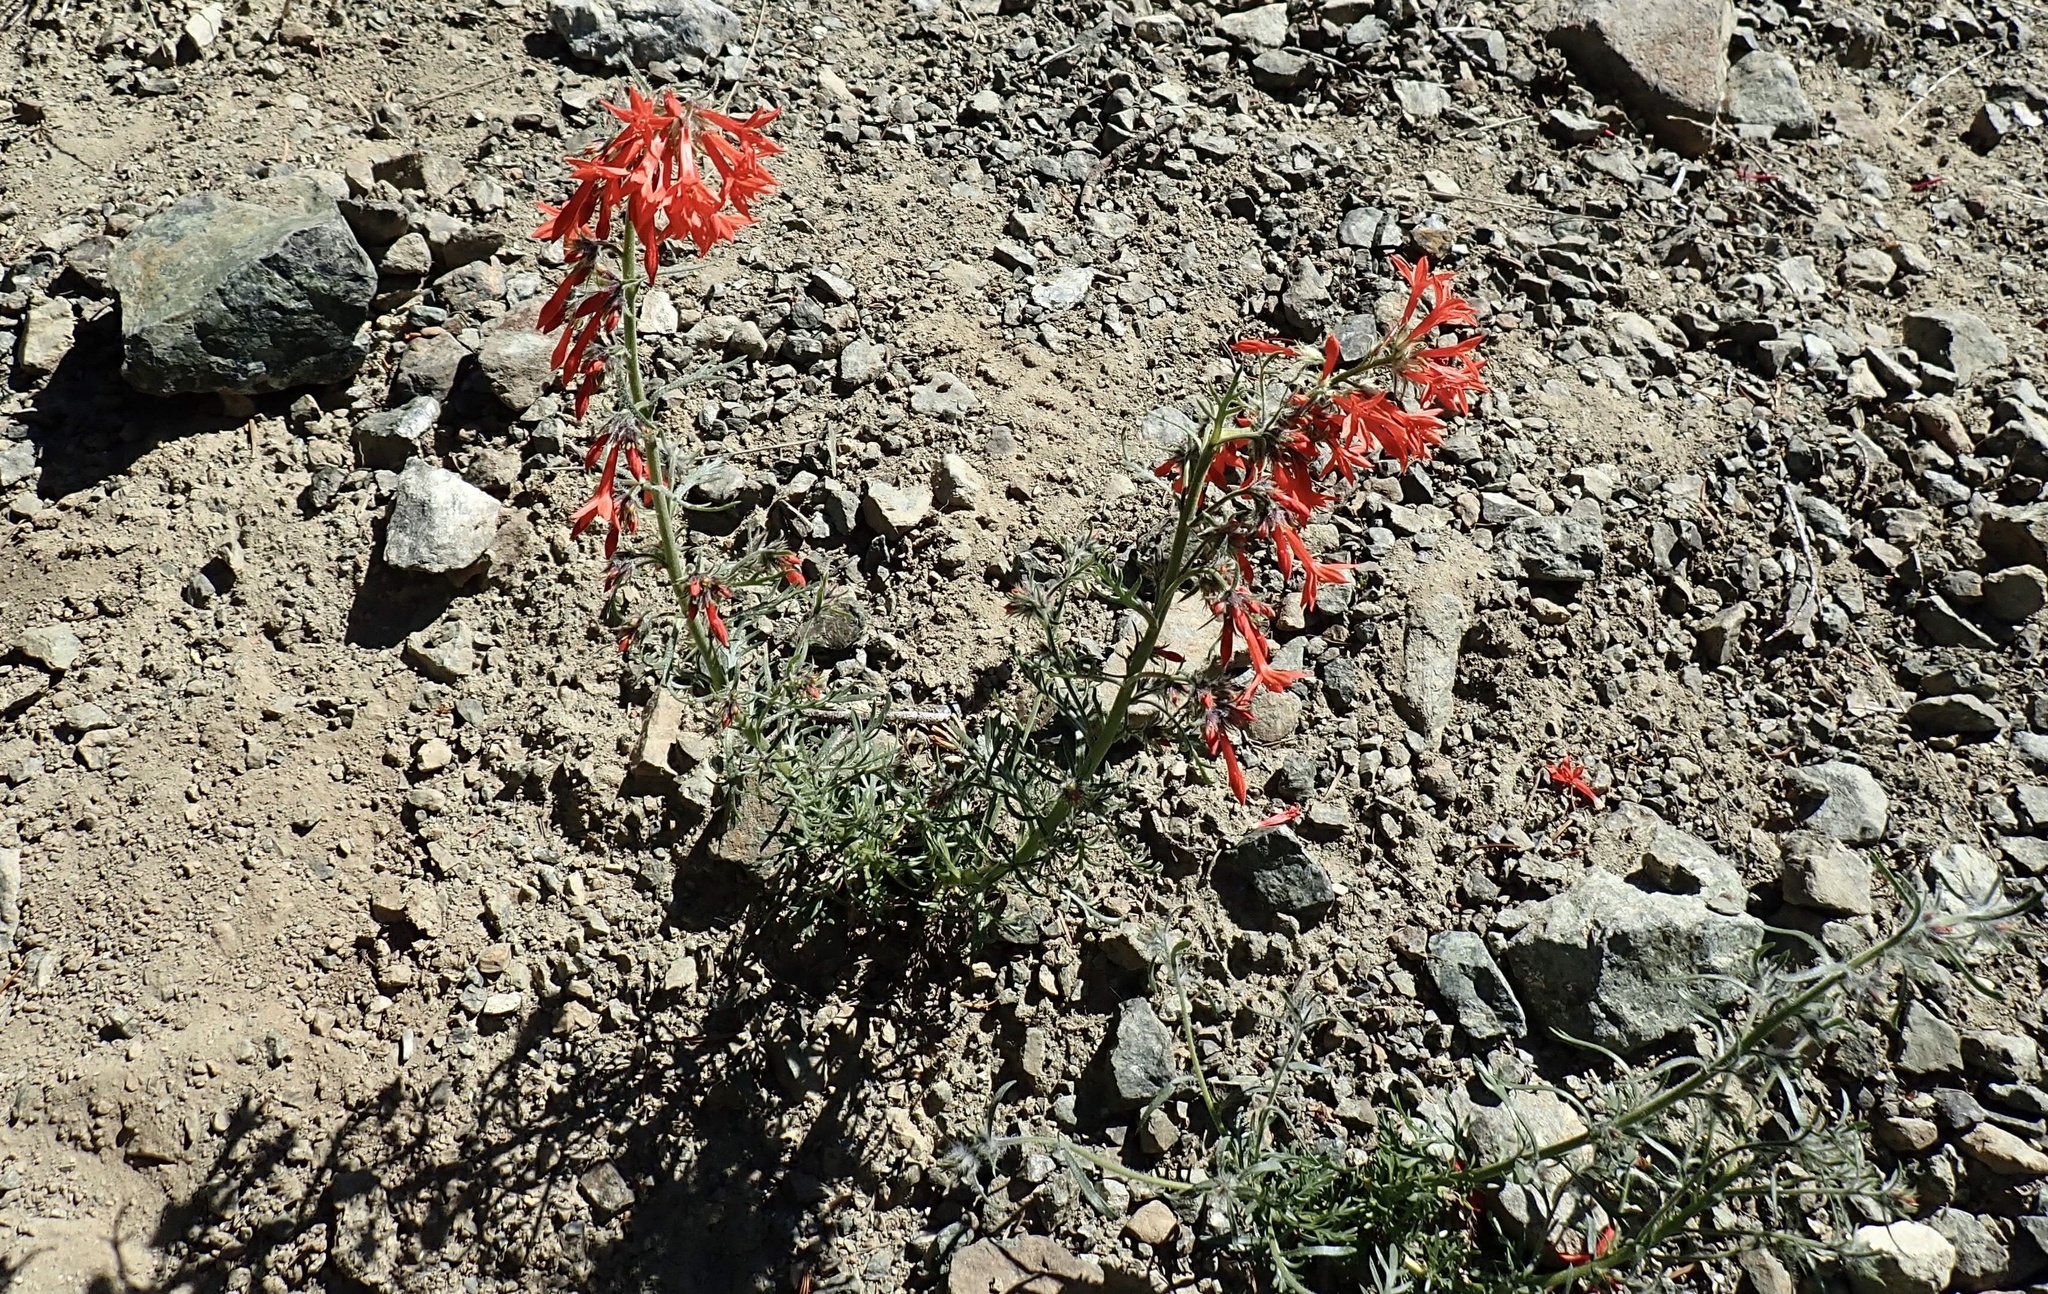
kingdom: Plantae
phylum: Tracheophyta
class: Magnoliopsida
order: Ericales
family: Polemoniaceae
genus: Ipomopsis
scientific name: Ipomopsis aggregata
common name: Scarlet gilia
